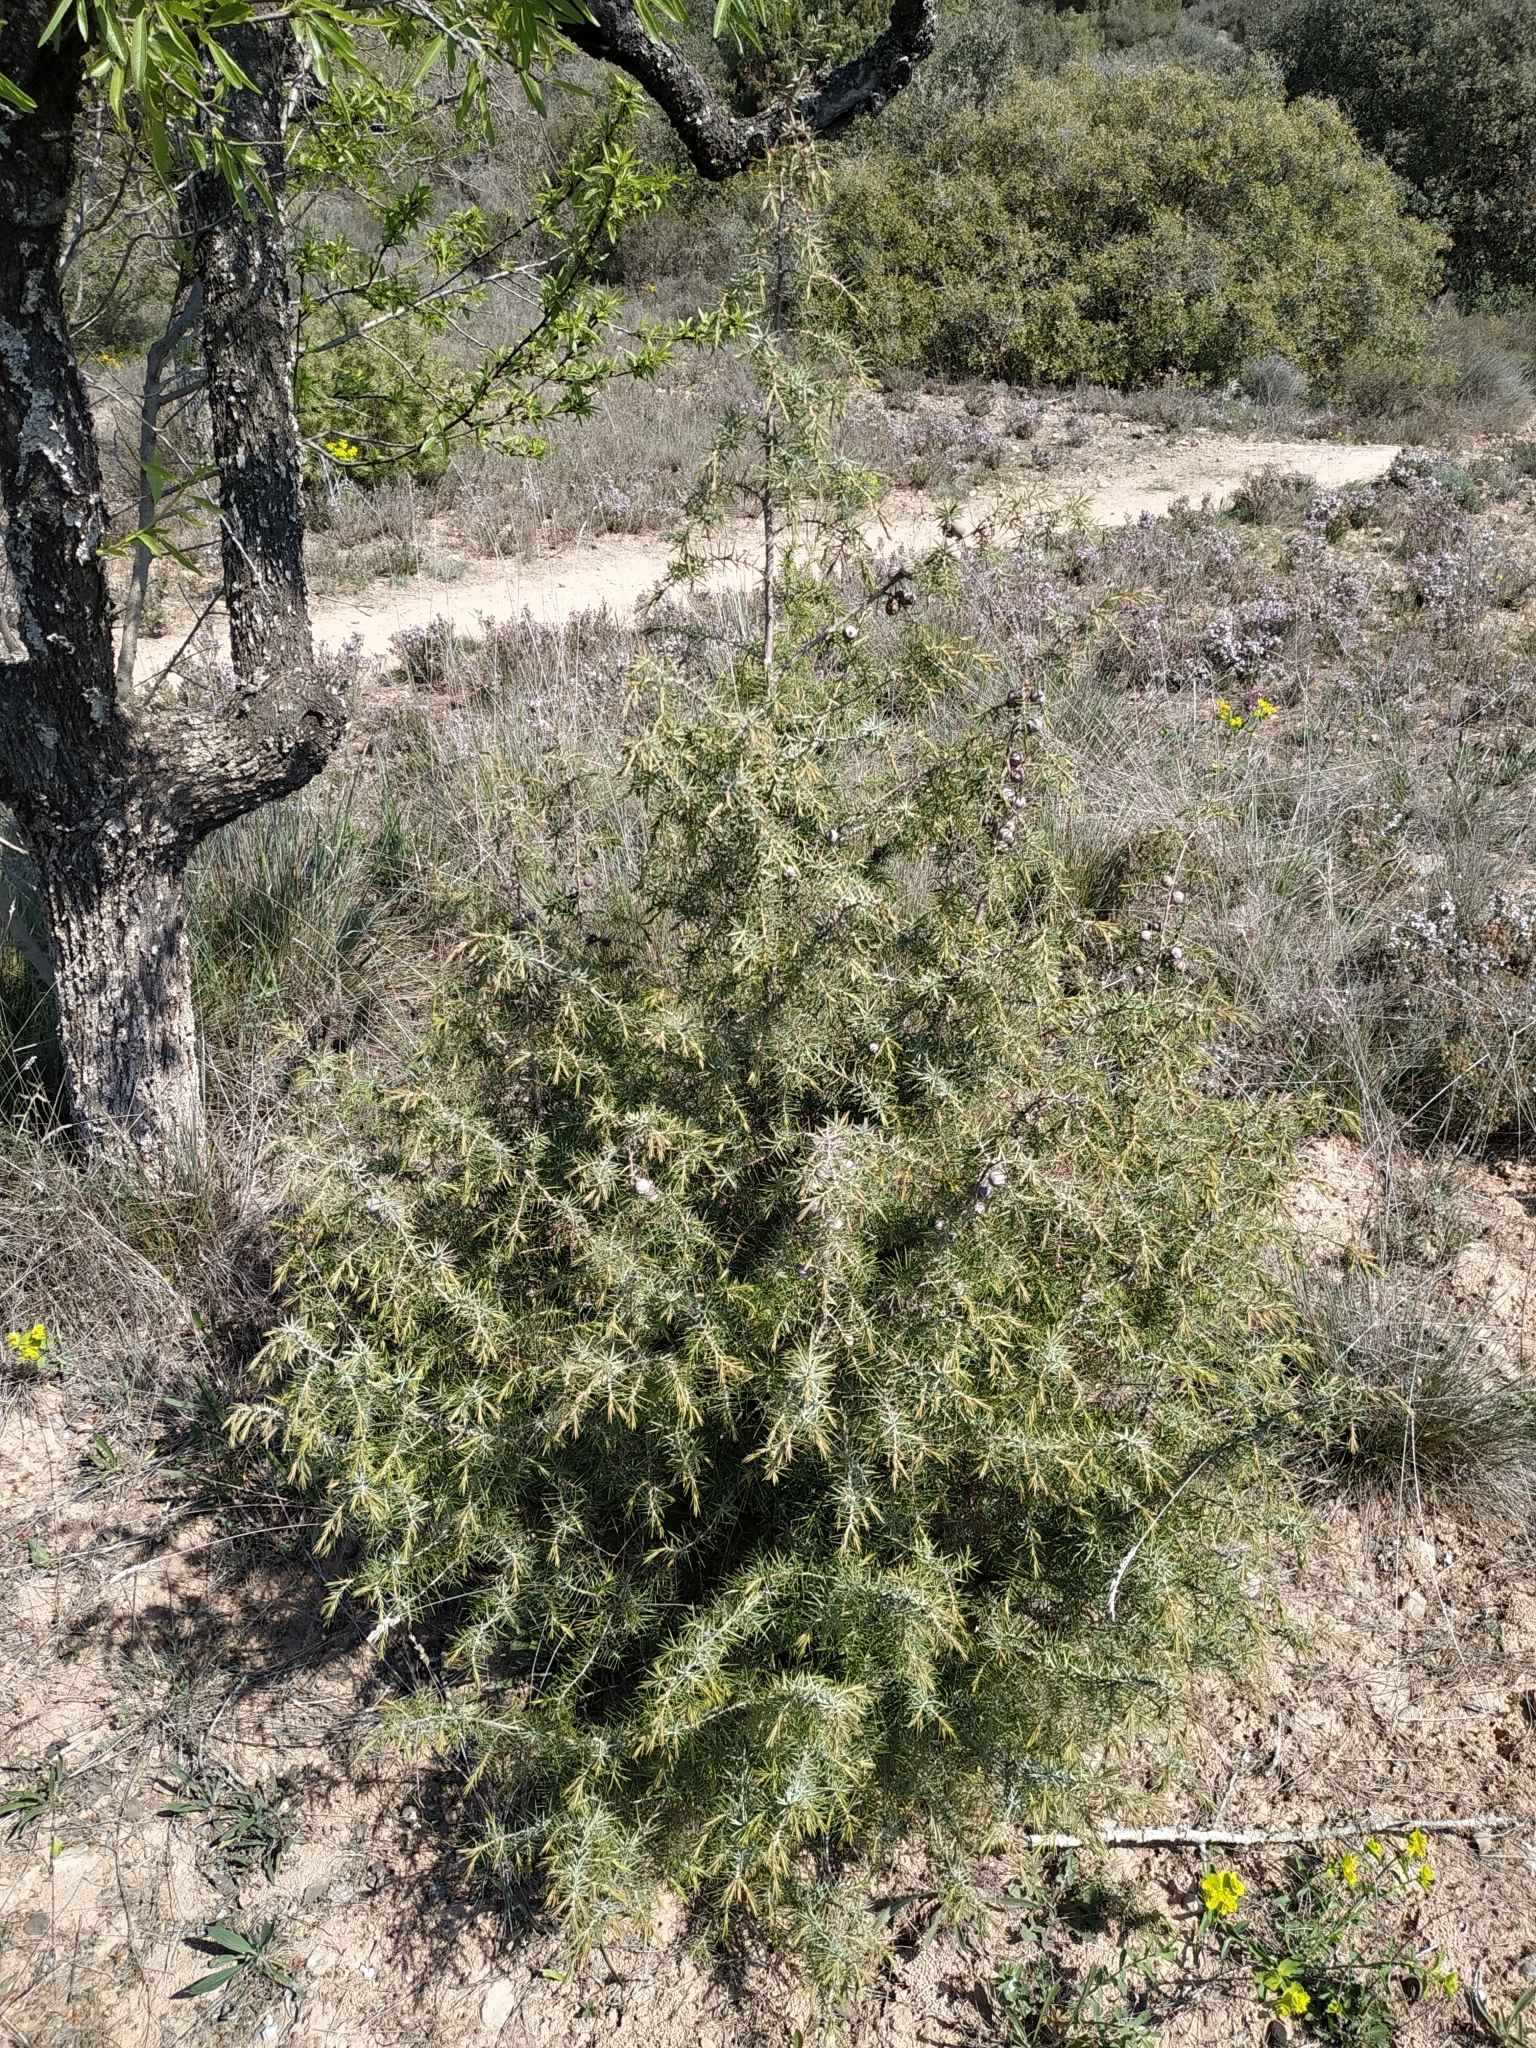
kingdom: Plantae
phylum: Tracheophyta
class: Pinopsida
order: Pinales
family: Cupressaceae
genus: Juniperus
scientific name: Juniperus oxycedrus
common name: Prickly juniper
